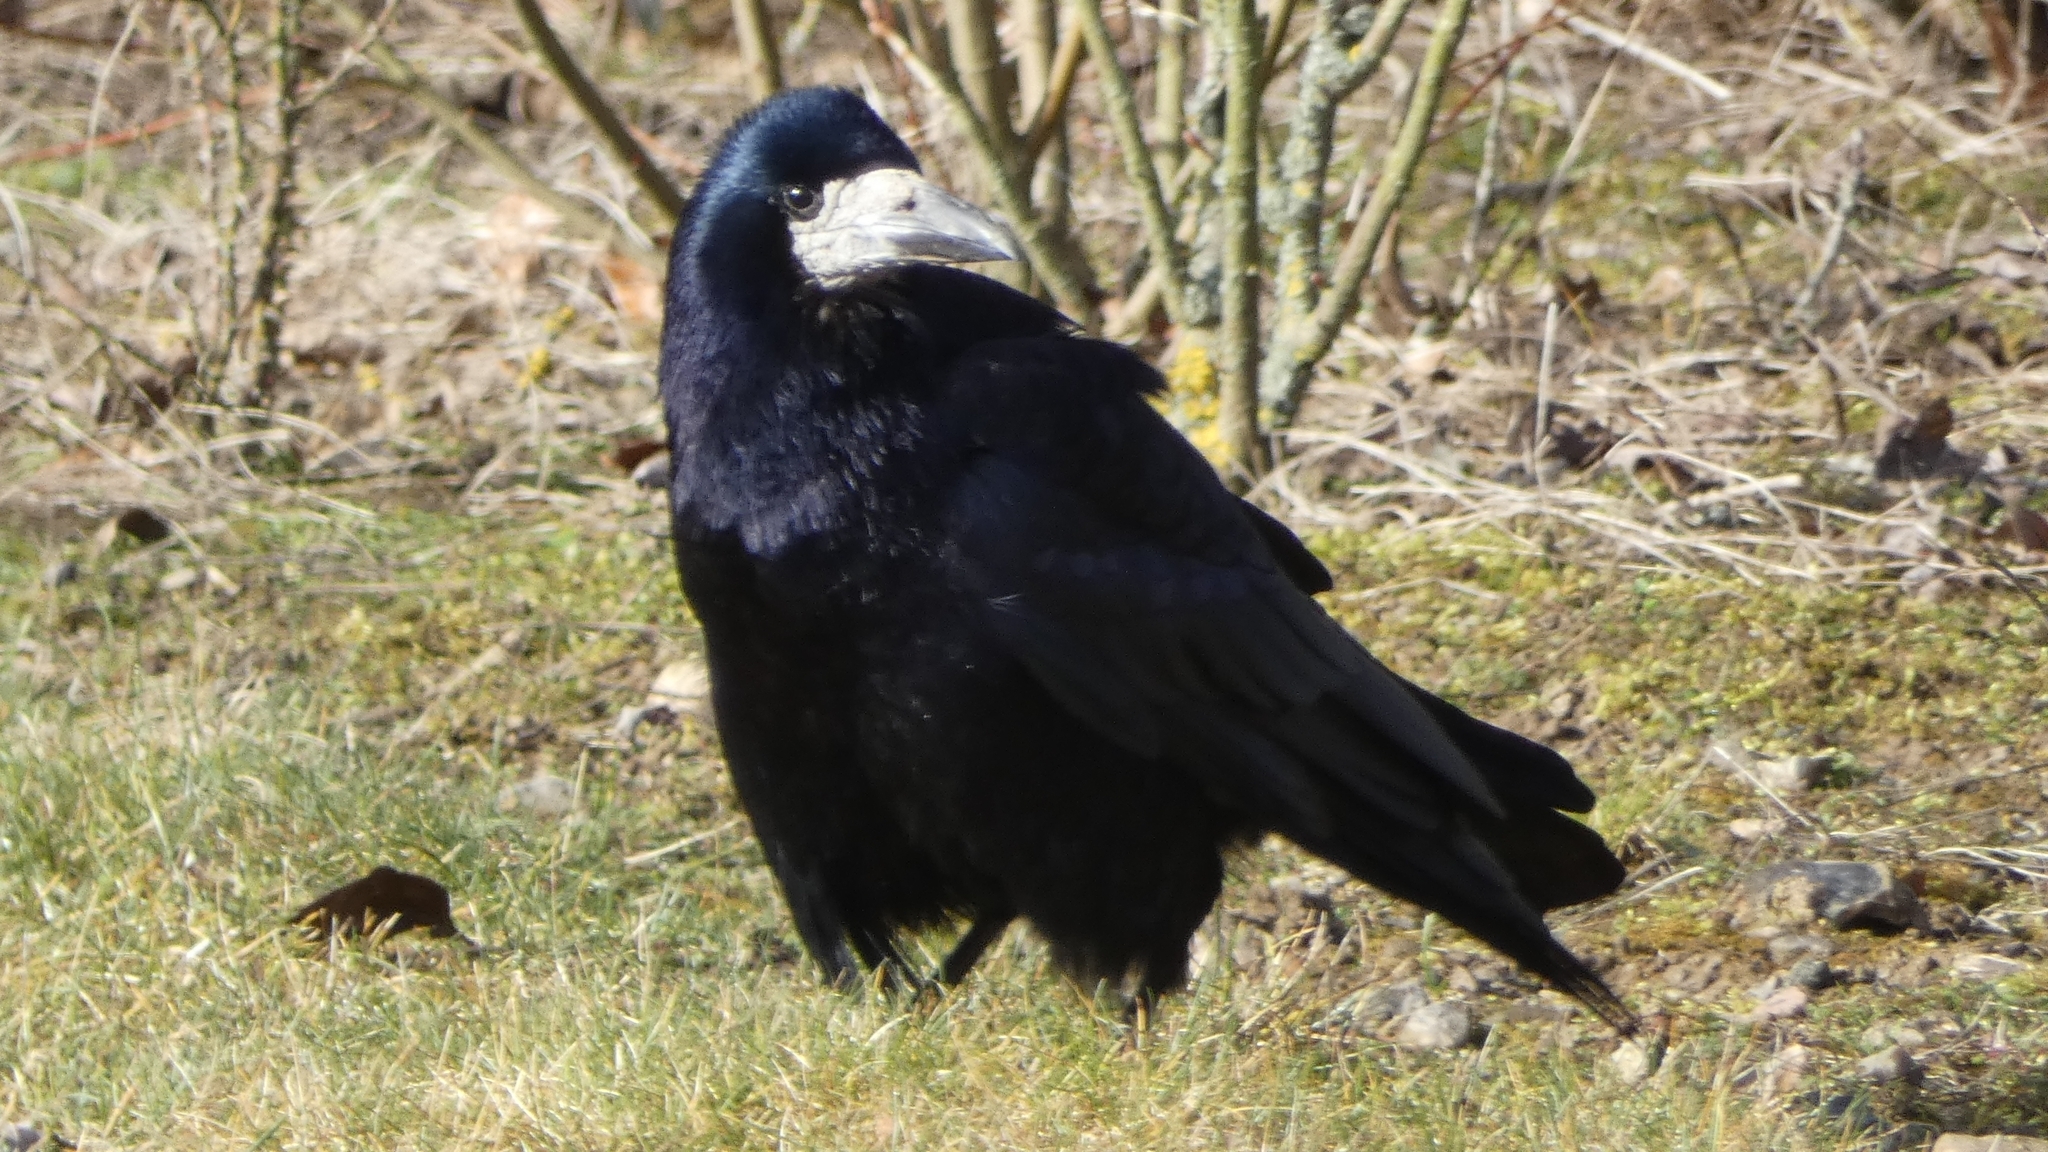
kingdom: Animalia
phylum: Chordata
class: Aves
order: Passeriformes
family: Corvidae
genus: Corvus
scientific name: Corvus frugilegus
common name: Rook
